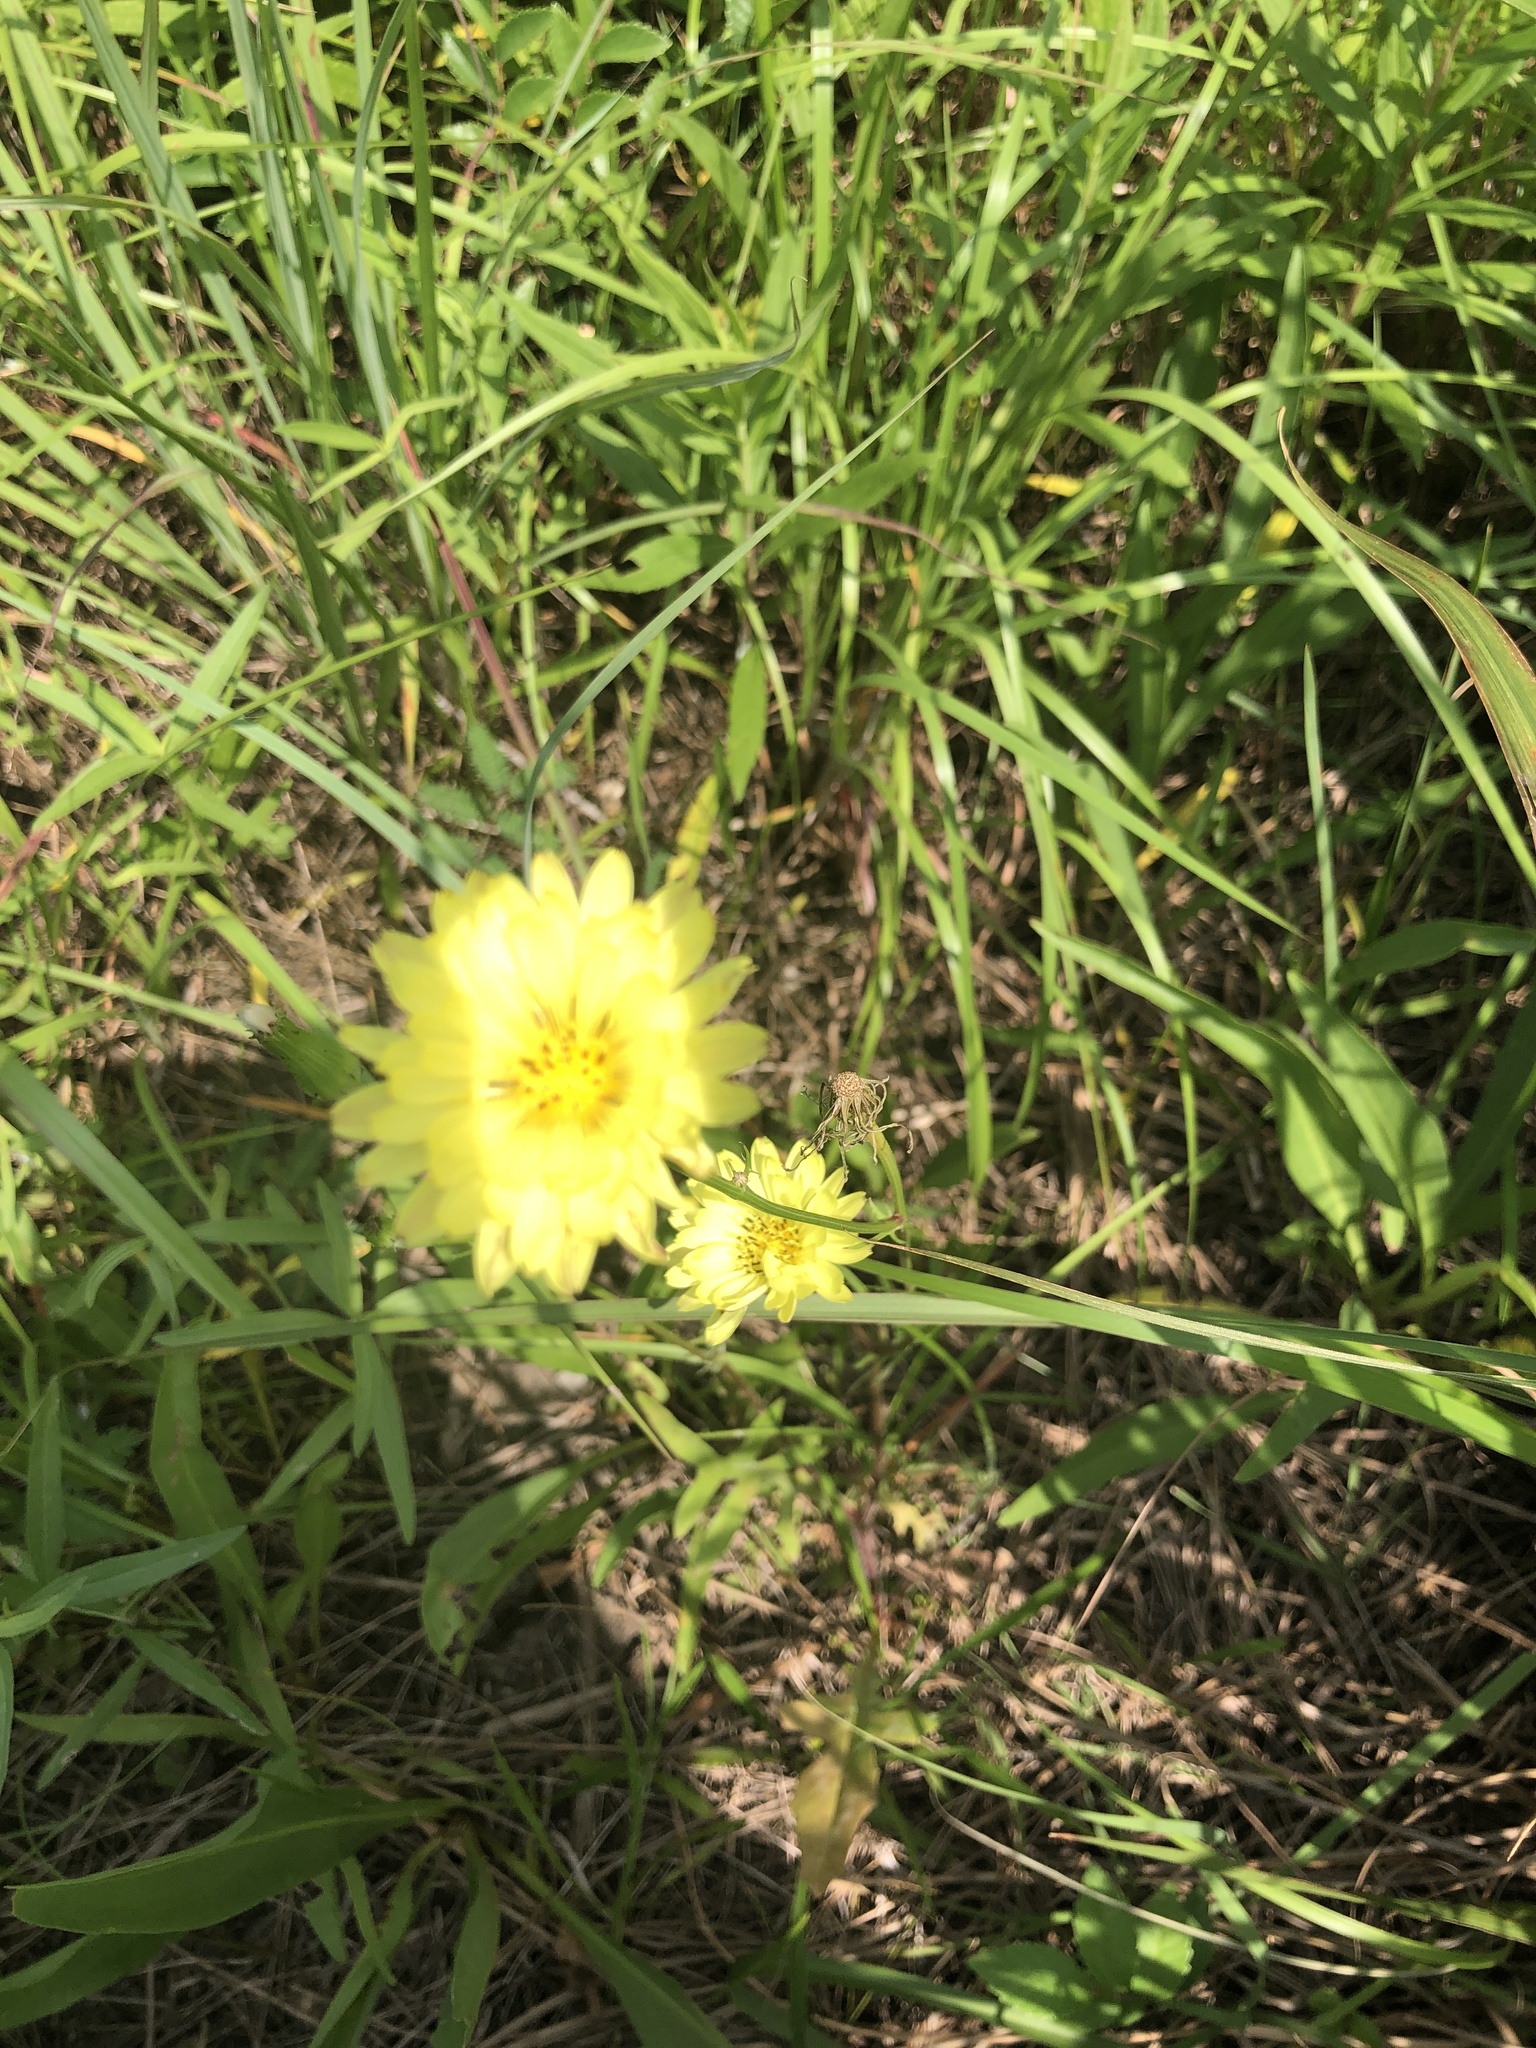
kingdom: Plantae
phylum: Tracheophyta
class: Magnoliopsida
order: Asterales
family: Asteraceae
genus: Pyrrhopappus
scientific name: Pyrrhopappus pauciflorus
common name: Texas false dandelion
